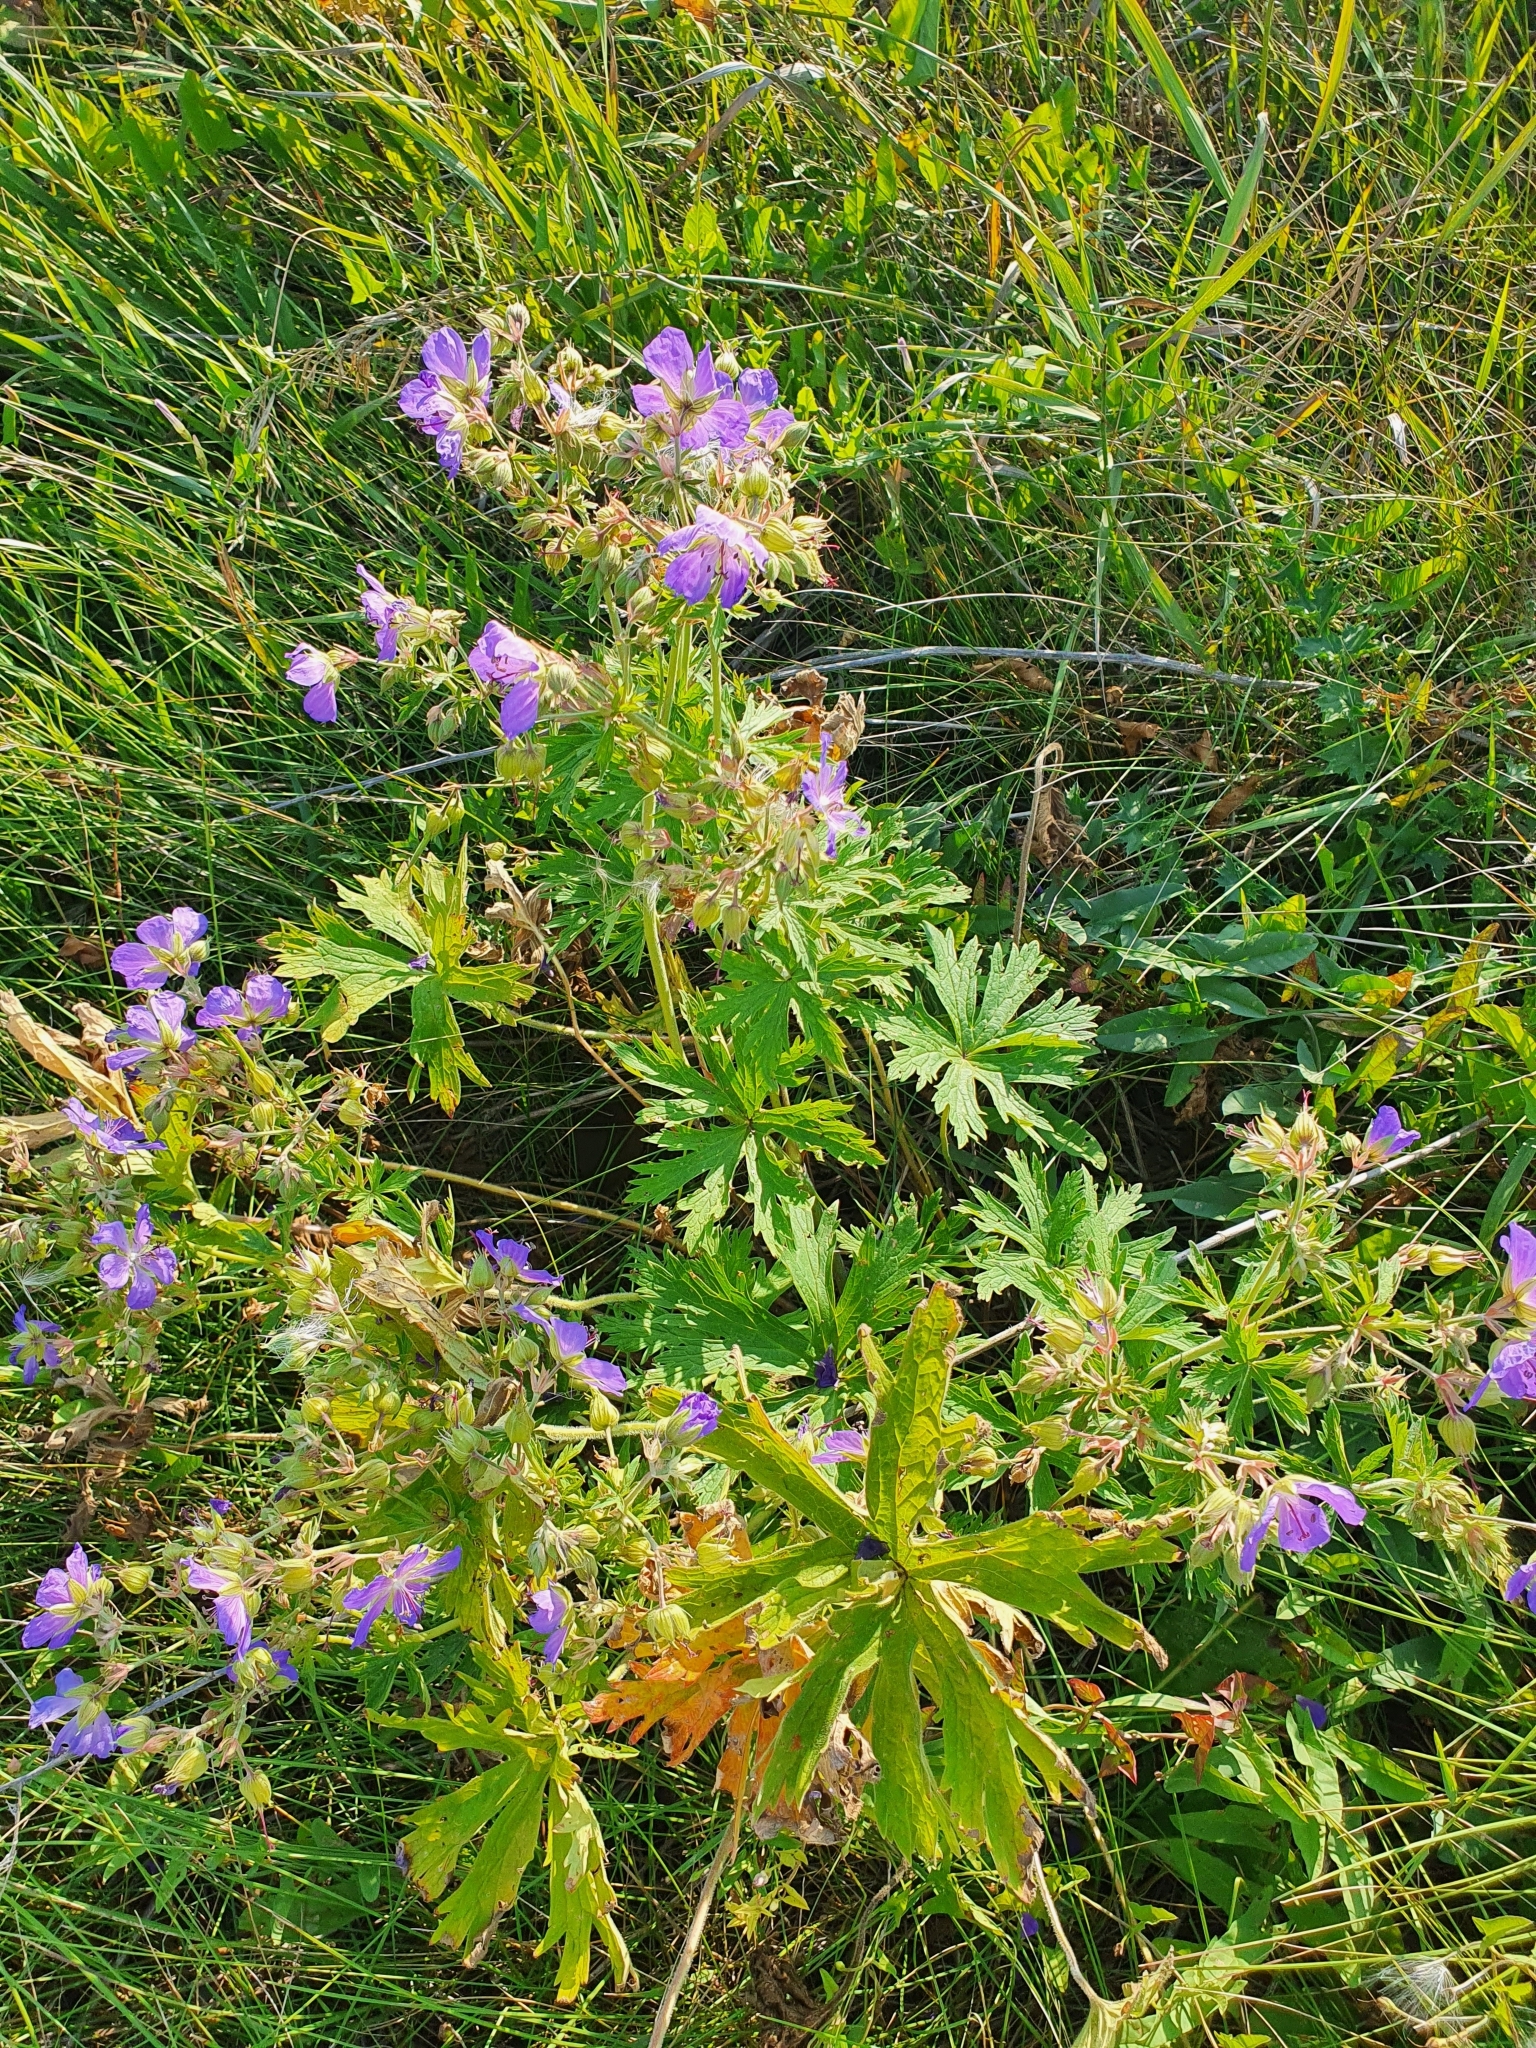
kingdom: Plantae
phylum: Tracheophyta
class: Magnoliopsida
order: Geraniales
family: Geraniaceae
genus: Geranium
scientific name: Geranium pratense
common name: Meadow crane's-bill
